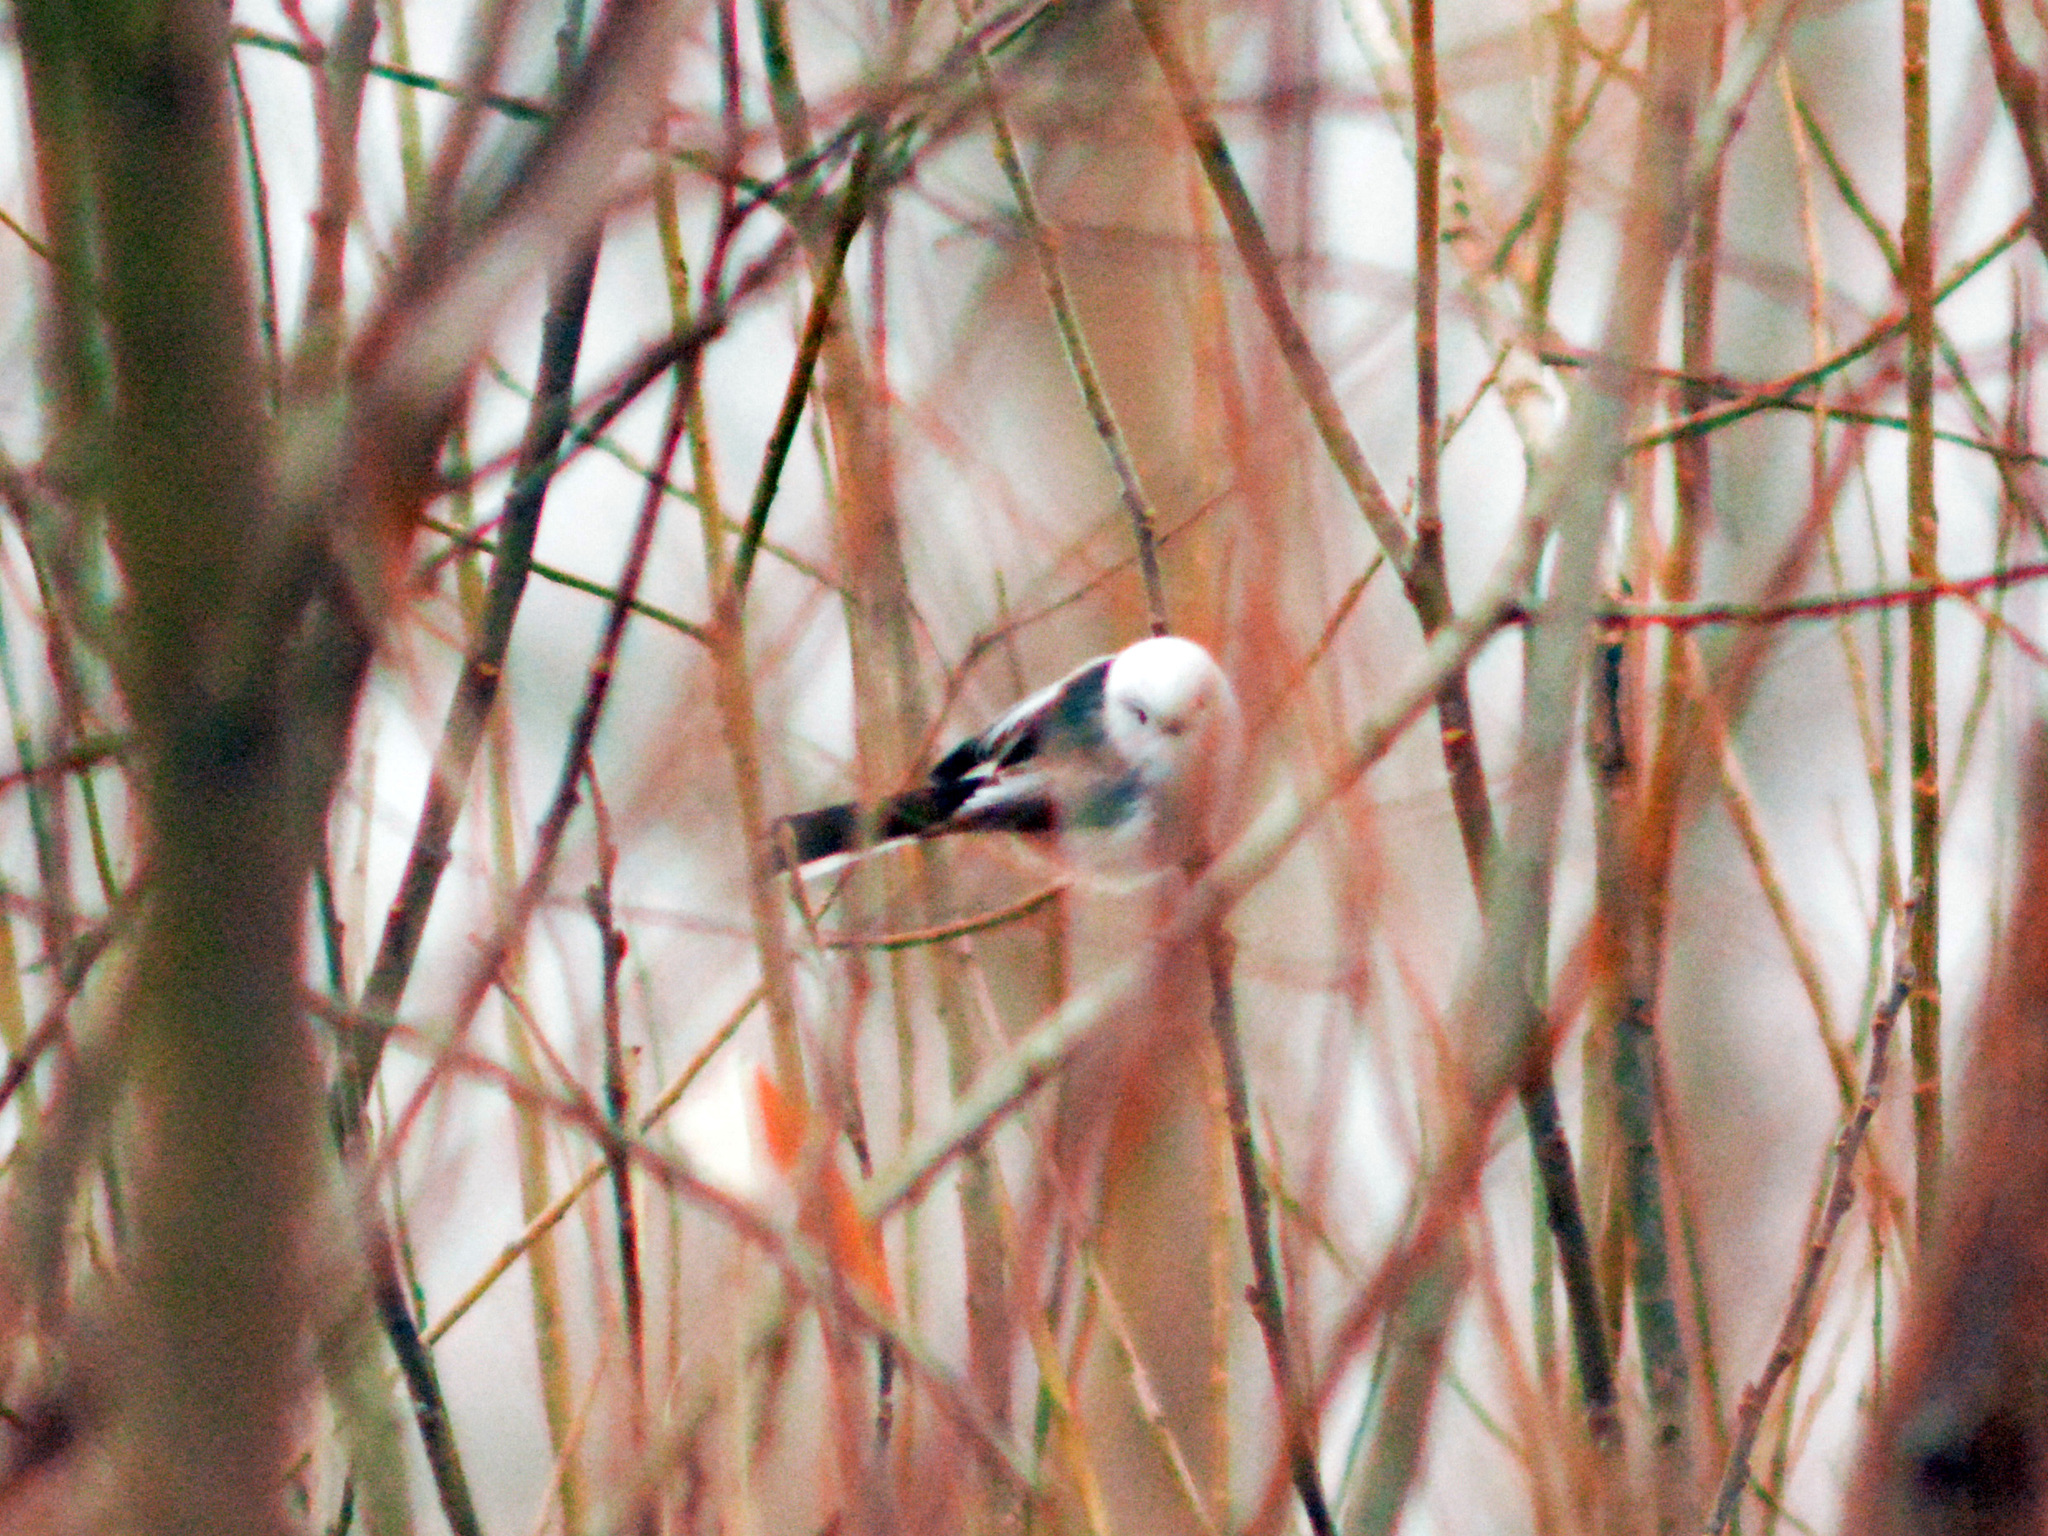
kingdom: Animalia
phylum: Chordata
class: Aves
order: Passeriformes
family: Aegithalidae
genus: Aegithalos
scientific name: Aegithalos caudatus
